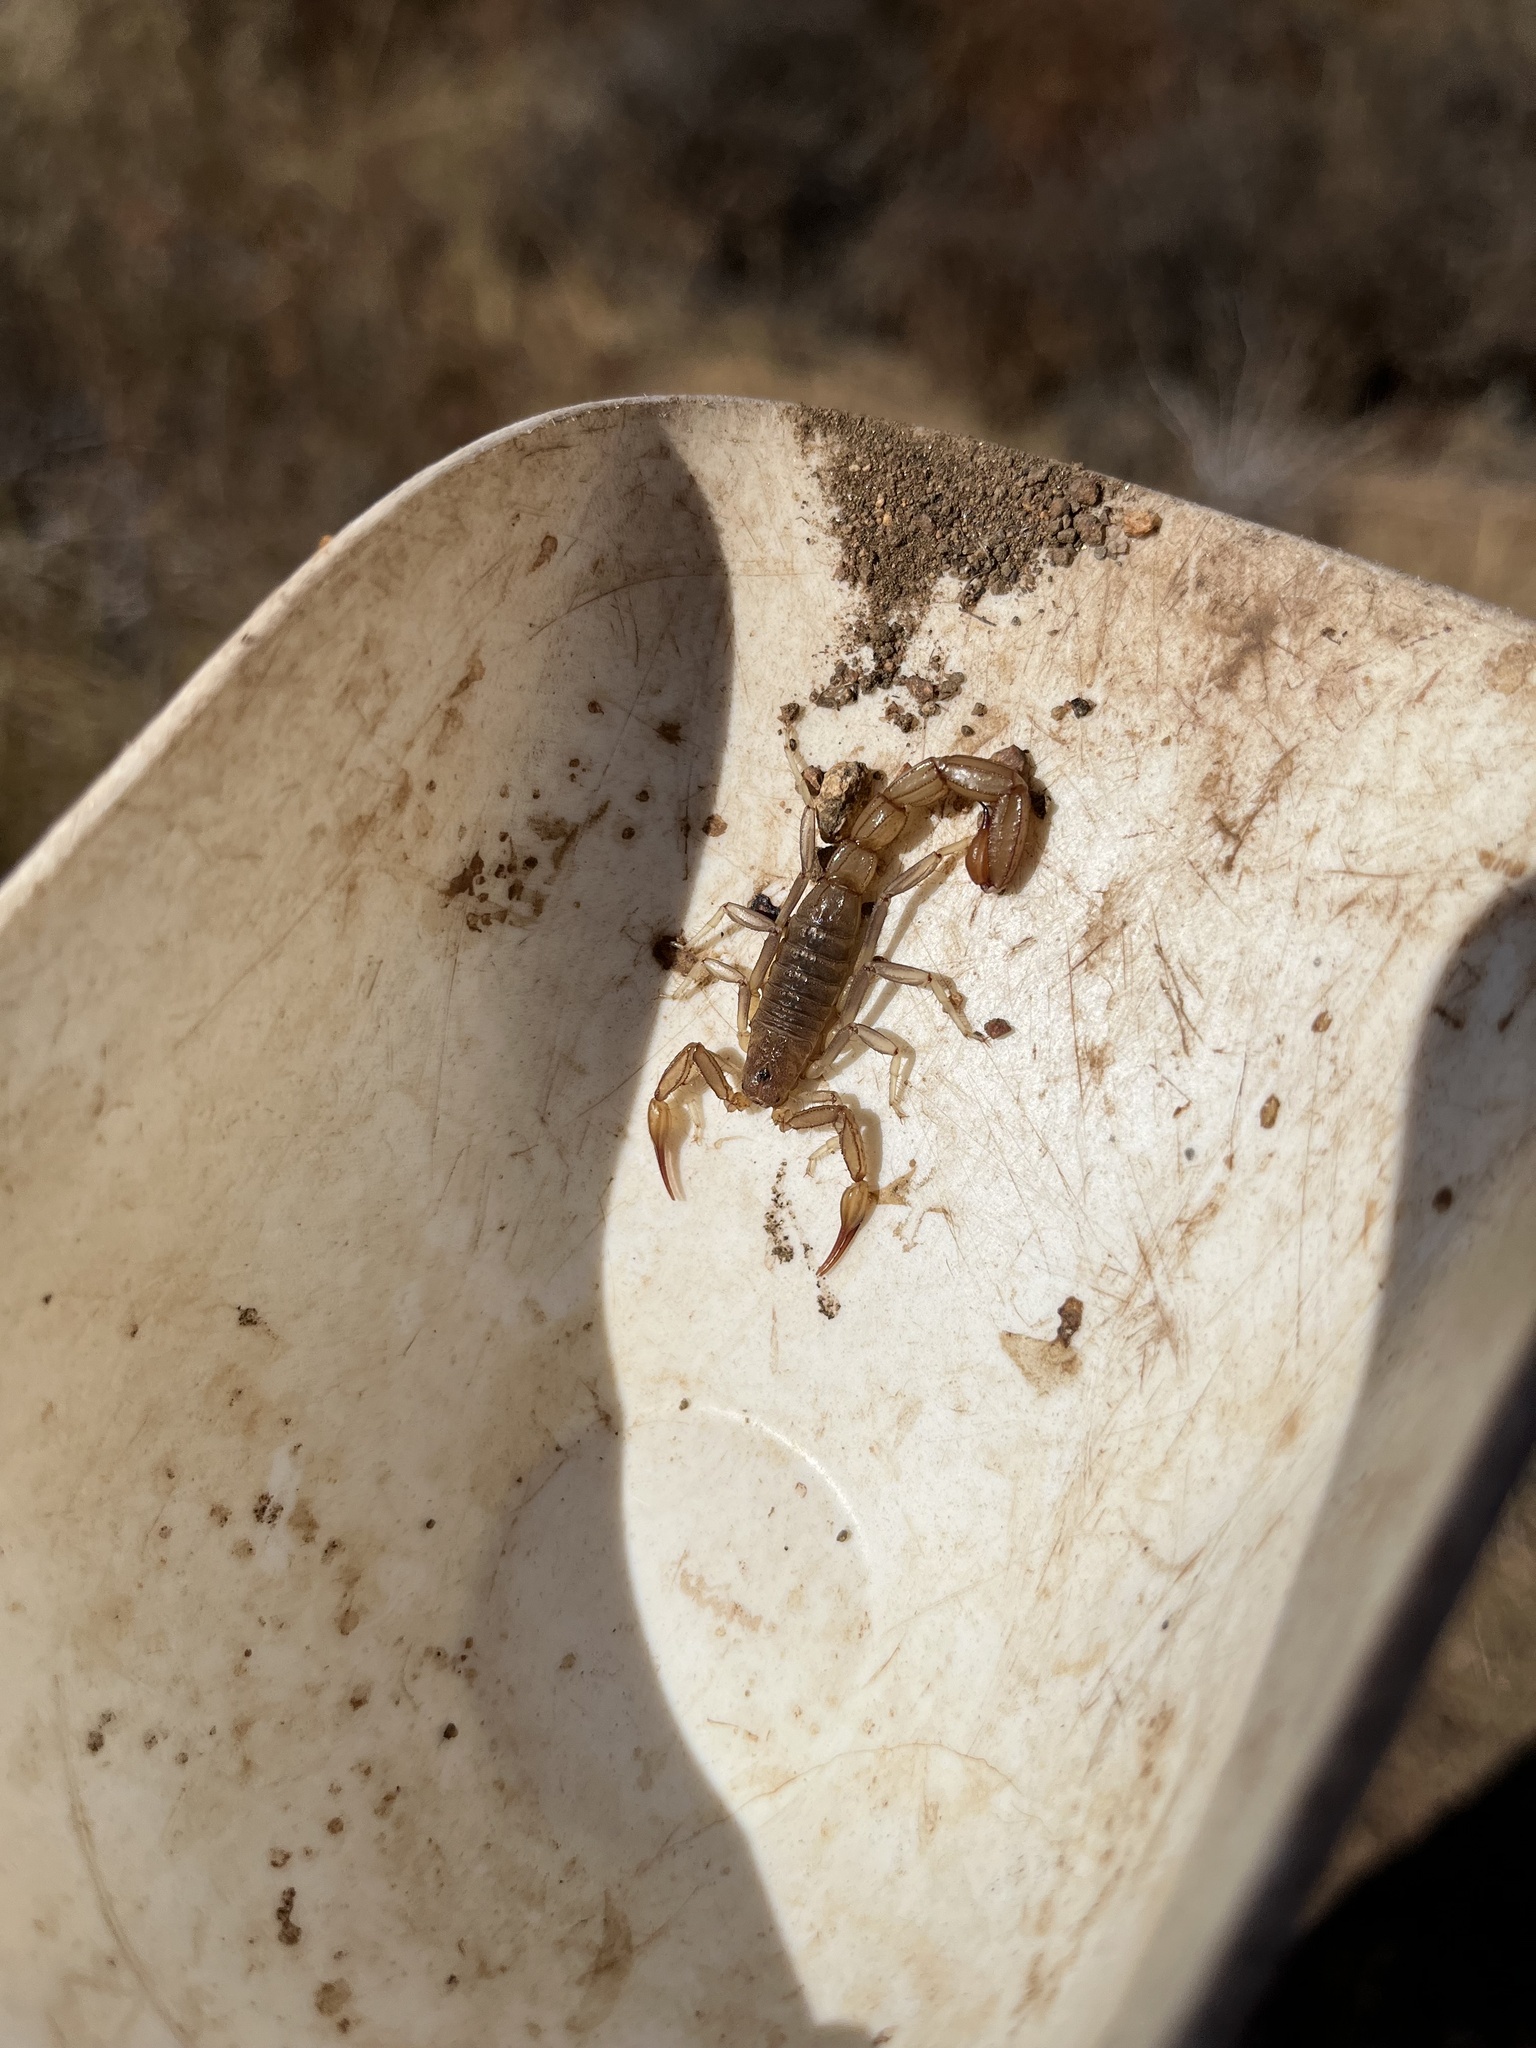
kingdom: Animalia
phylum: Arthropoda
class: Arachnida
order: Scorpiones
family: Vaejovidae
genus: Paravaejovis
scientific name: Paravaejovis puritanus
